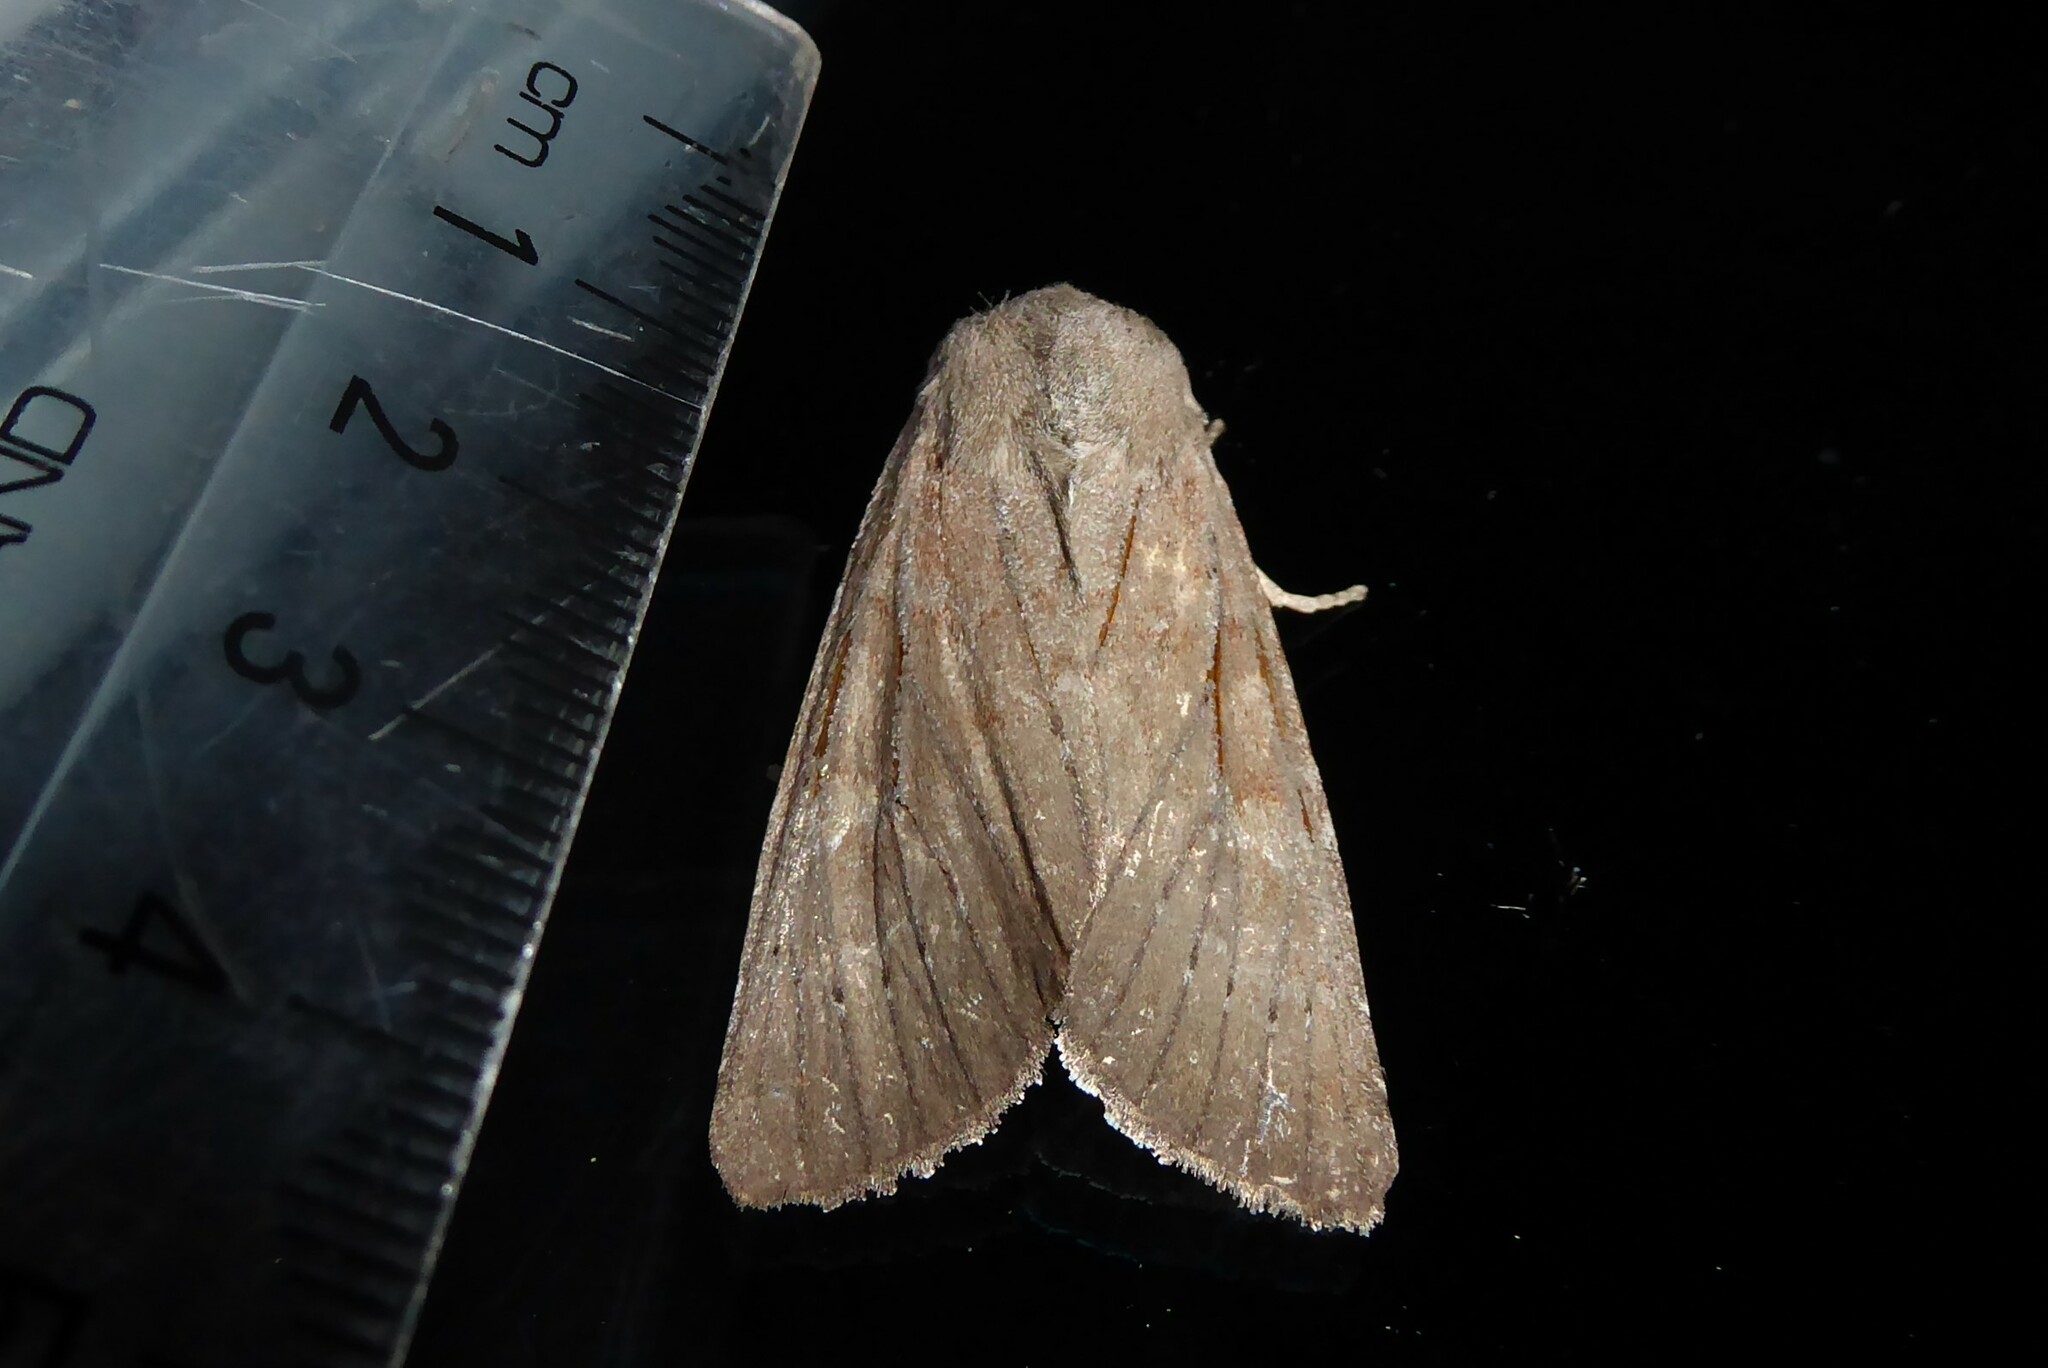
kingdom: Animalia
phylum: Arthropoda
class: Insecta
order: Lepidoptera
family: Noctuidae
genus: Ichneutica
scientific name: Ichneutica nullifera
